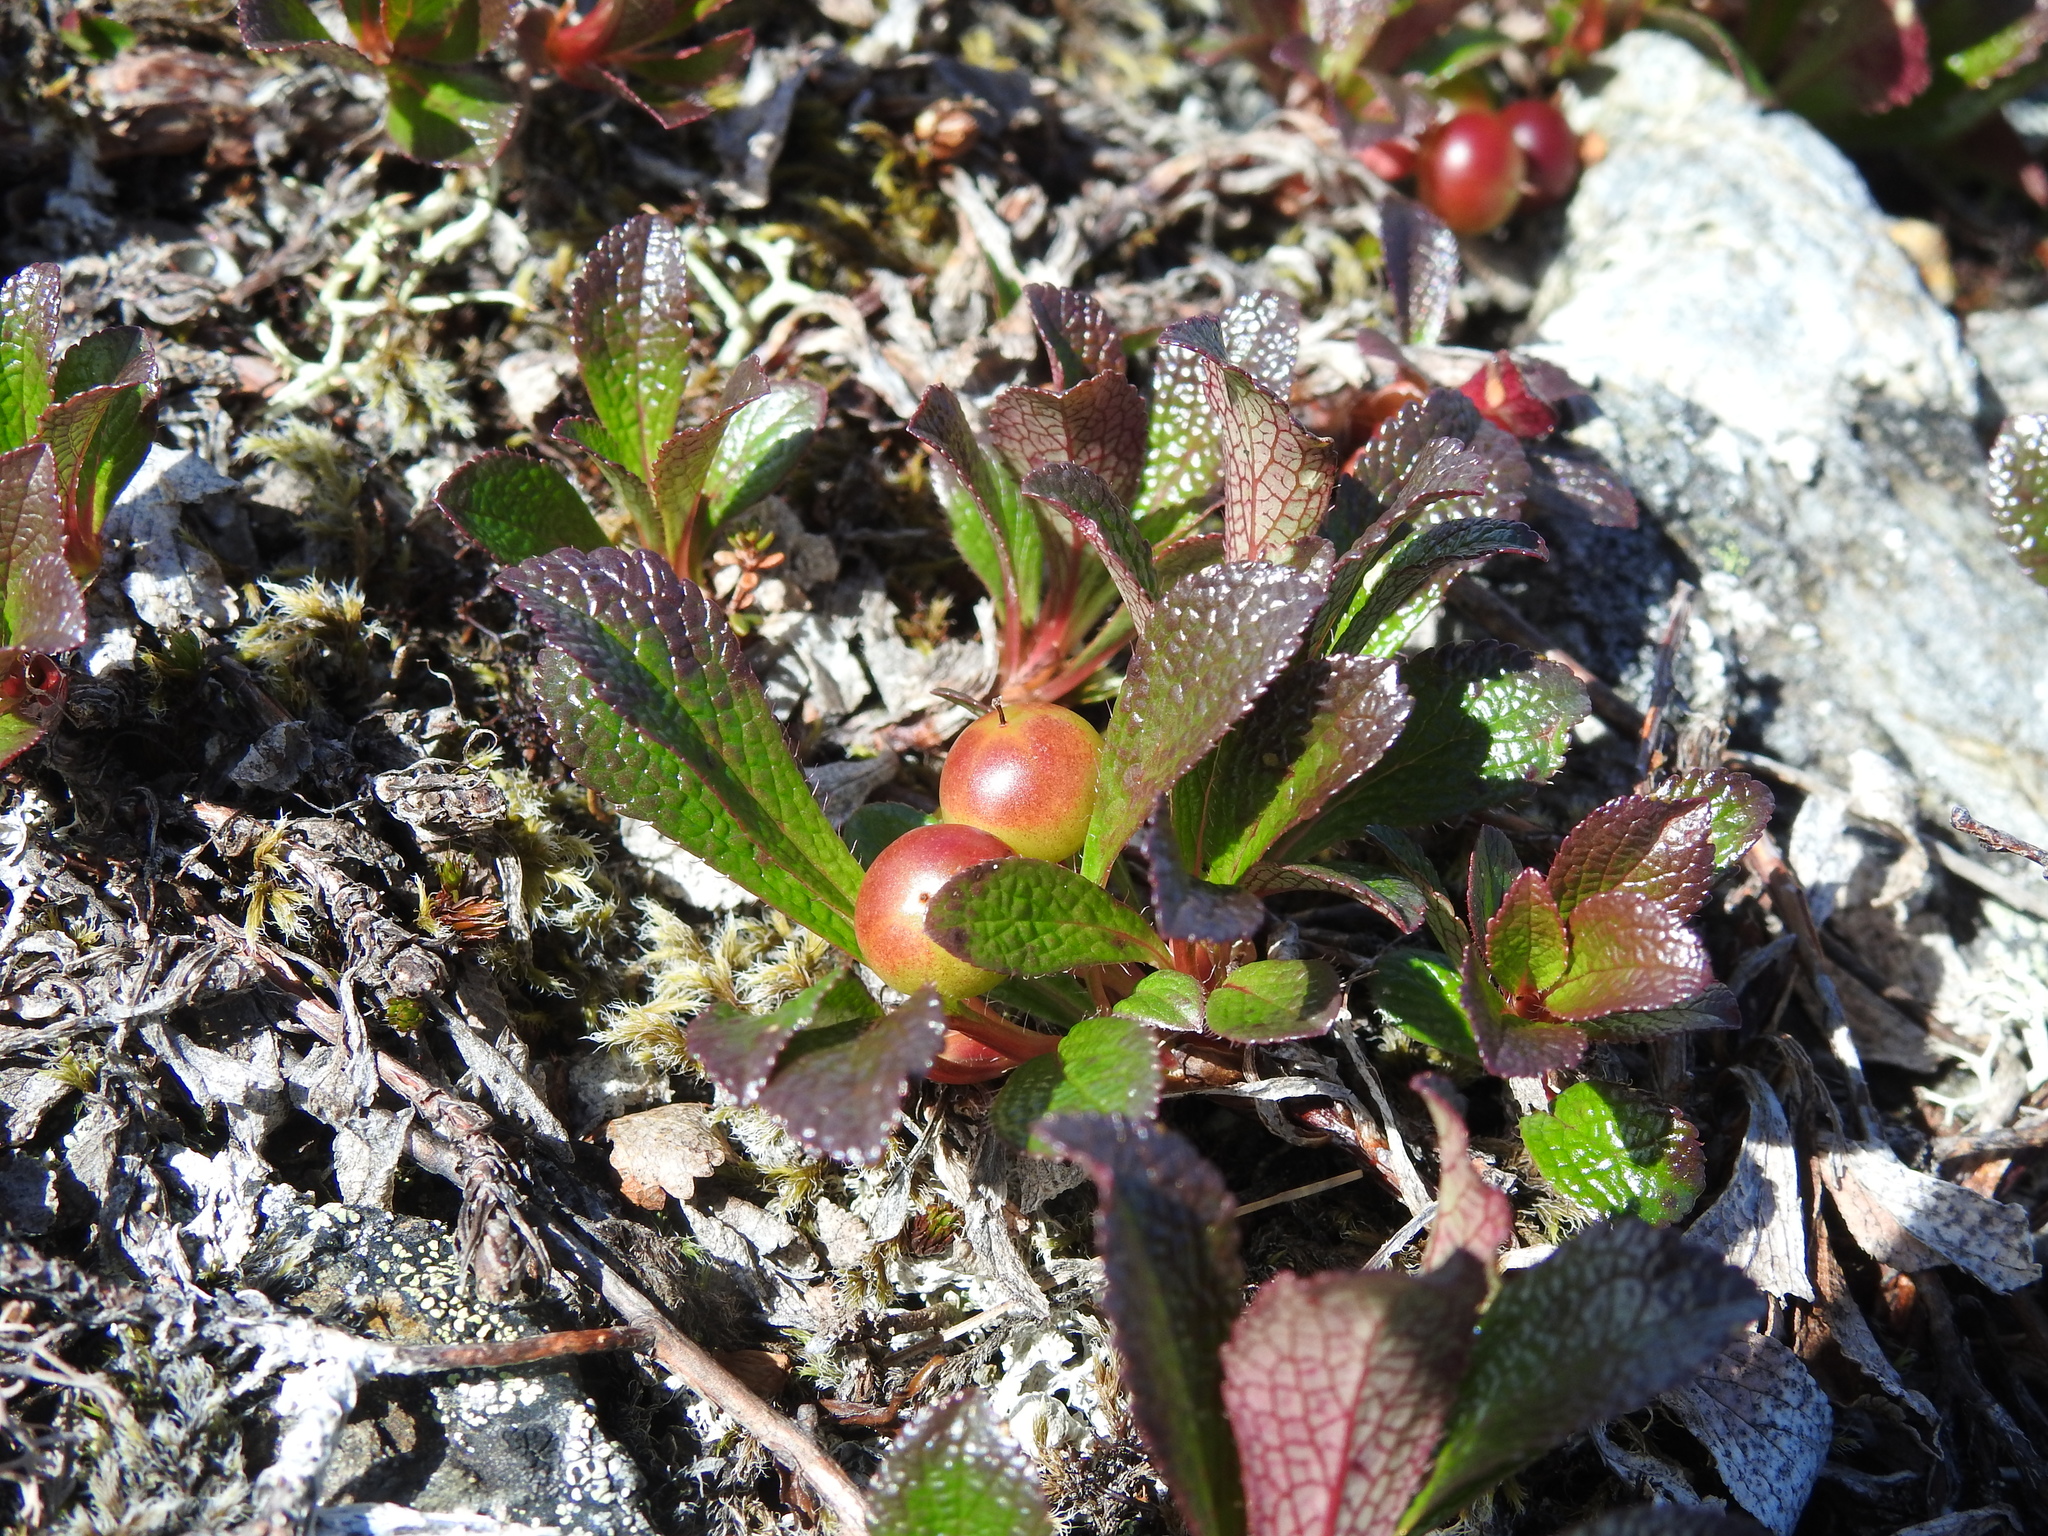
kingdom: Plantae
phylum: Tracheophyta
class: Magnoliopsida
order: Ericales
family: Ericaceae
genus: Arctostaphylos
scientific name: Arctostaphylos alpinus
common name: Alpine bearberry
